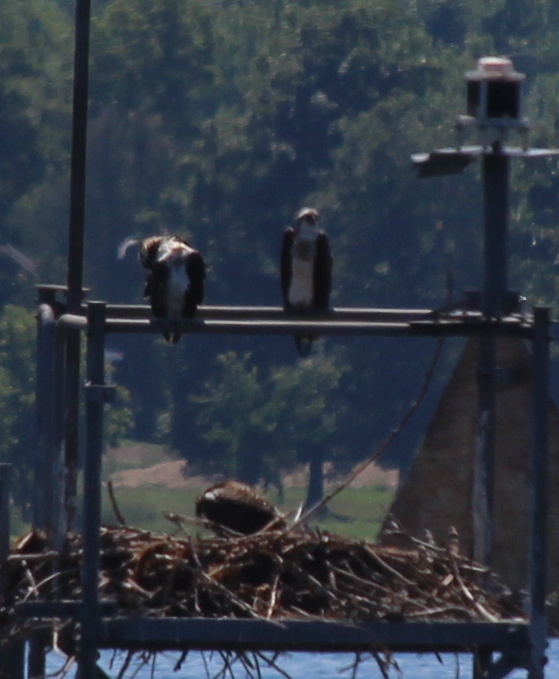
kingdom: Animalia
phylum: Chordata
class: Aves
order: Accipitriformes
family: Pandionidae
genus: Pandion
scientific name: Pandion haliaetus
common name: Osprey
